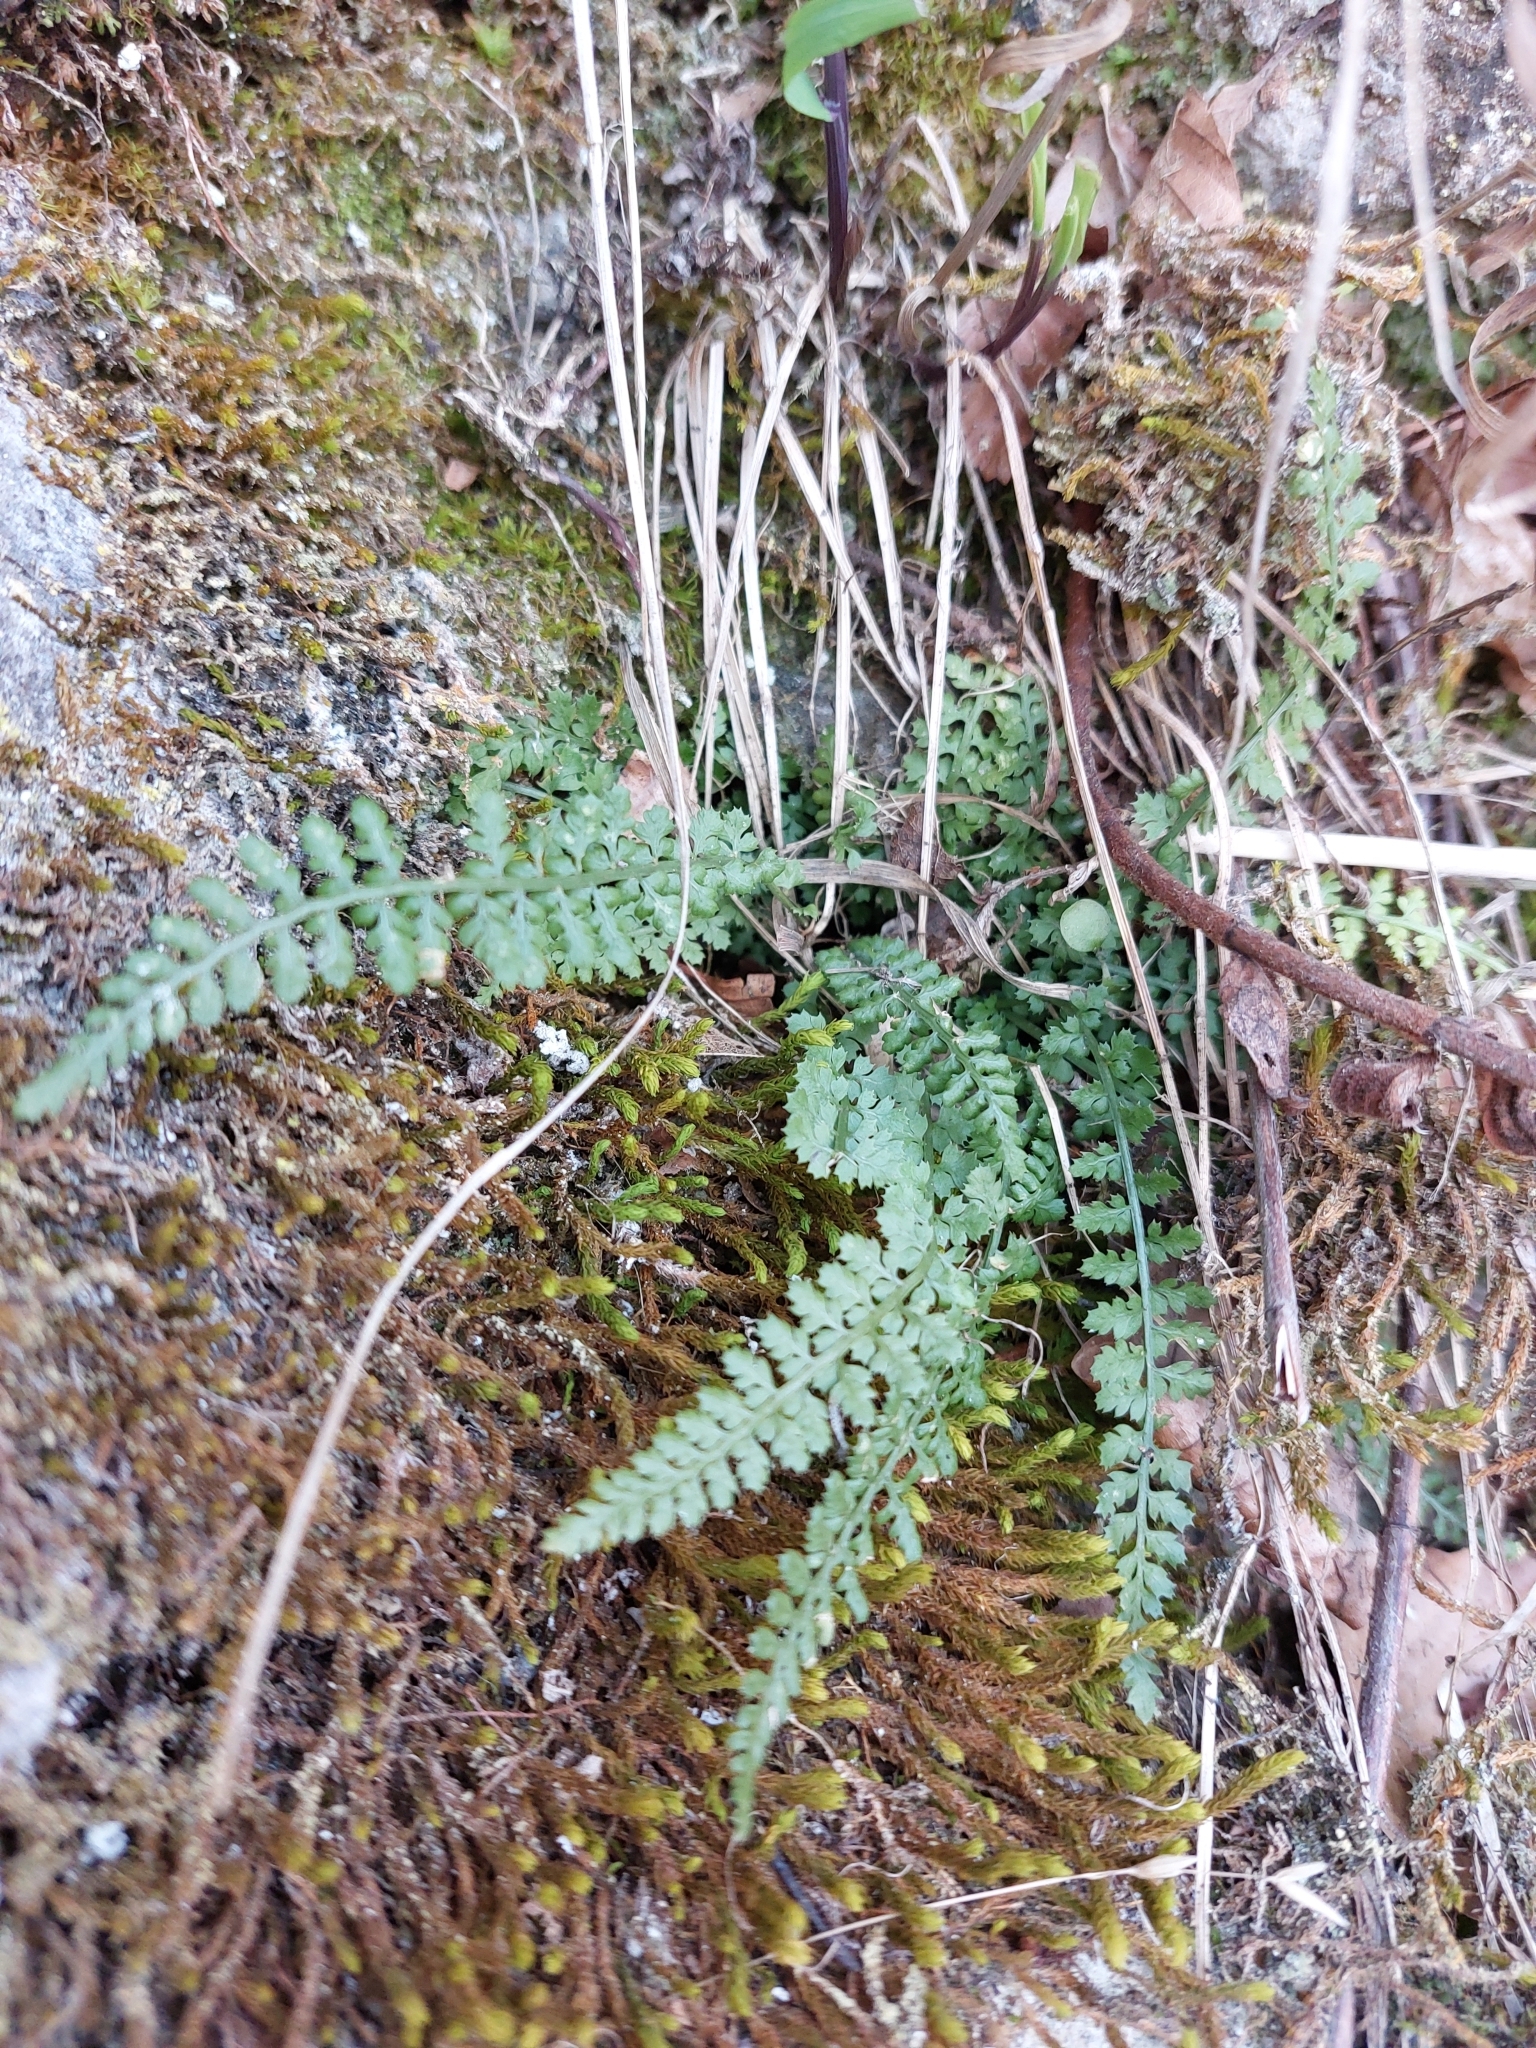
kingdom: Plantae
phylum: Tracheophyta
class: Polypodiopsida
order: Polypodiales
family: Aspleniaceae
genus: Asplenium
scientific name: Asplenium fontanum
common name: Fountain spleenwort
